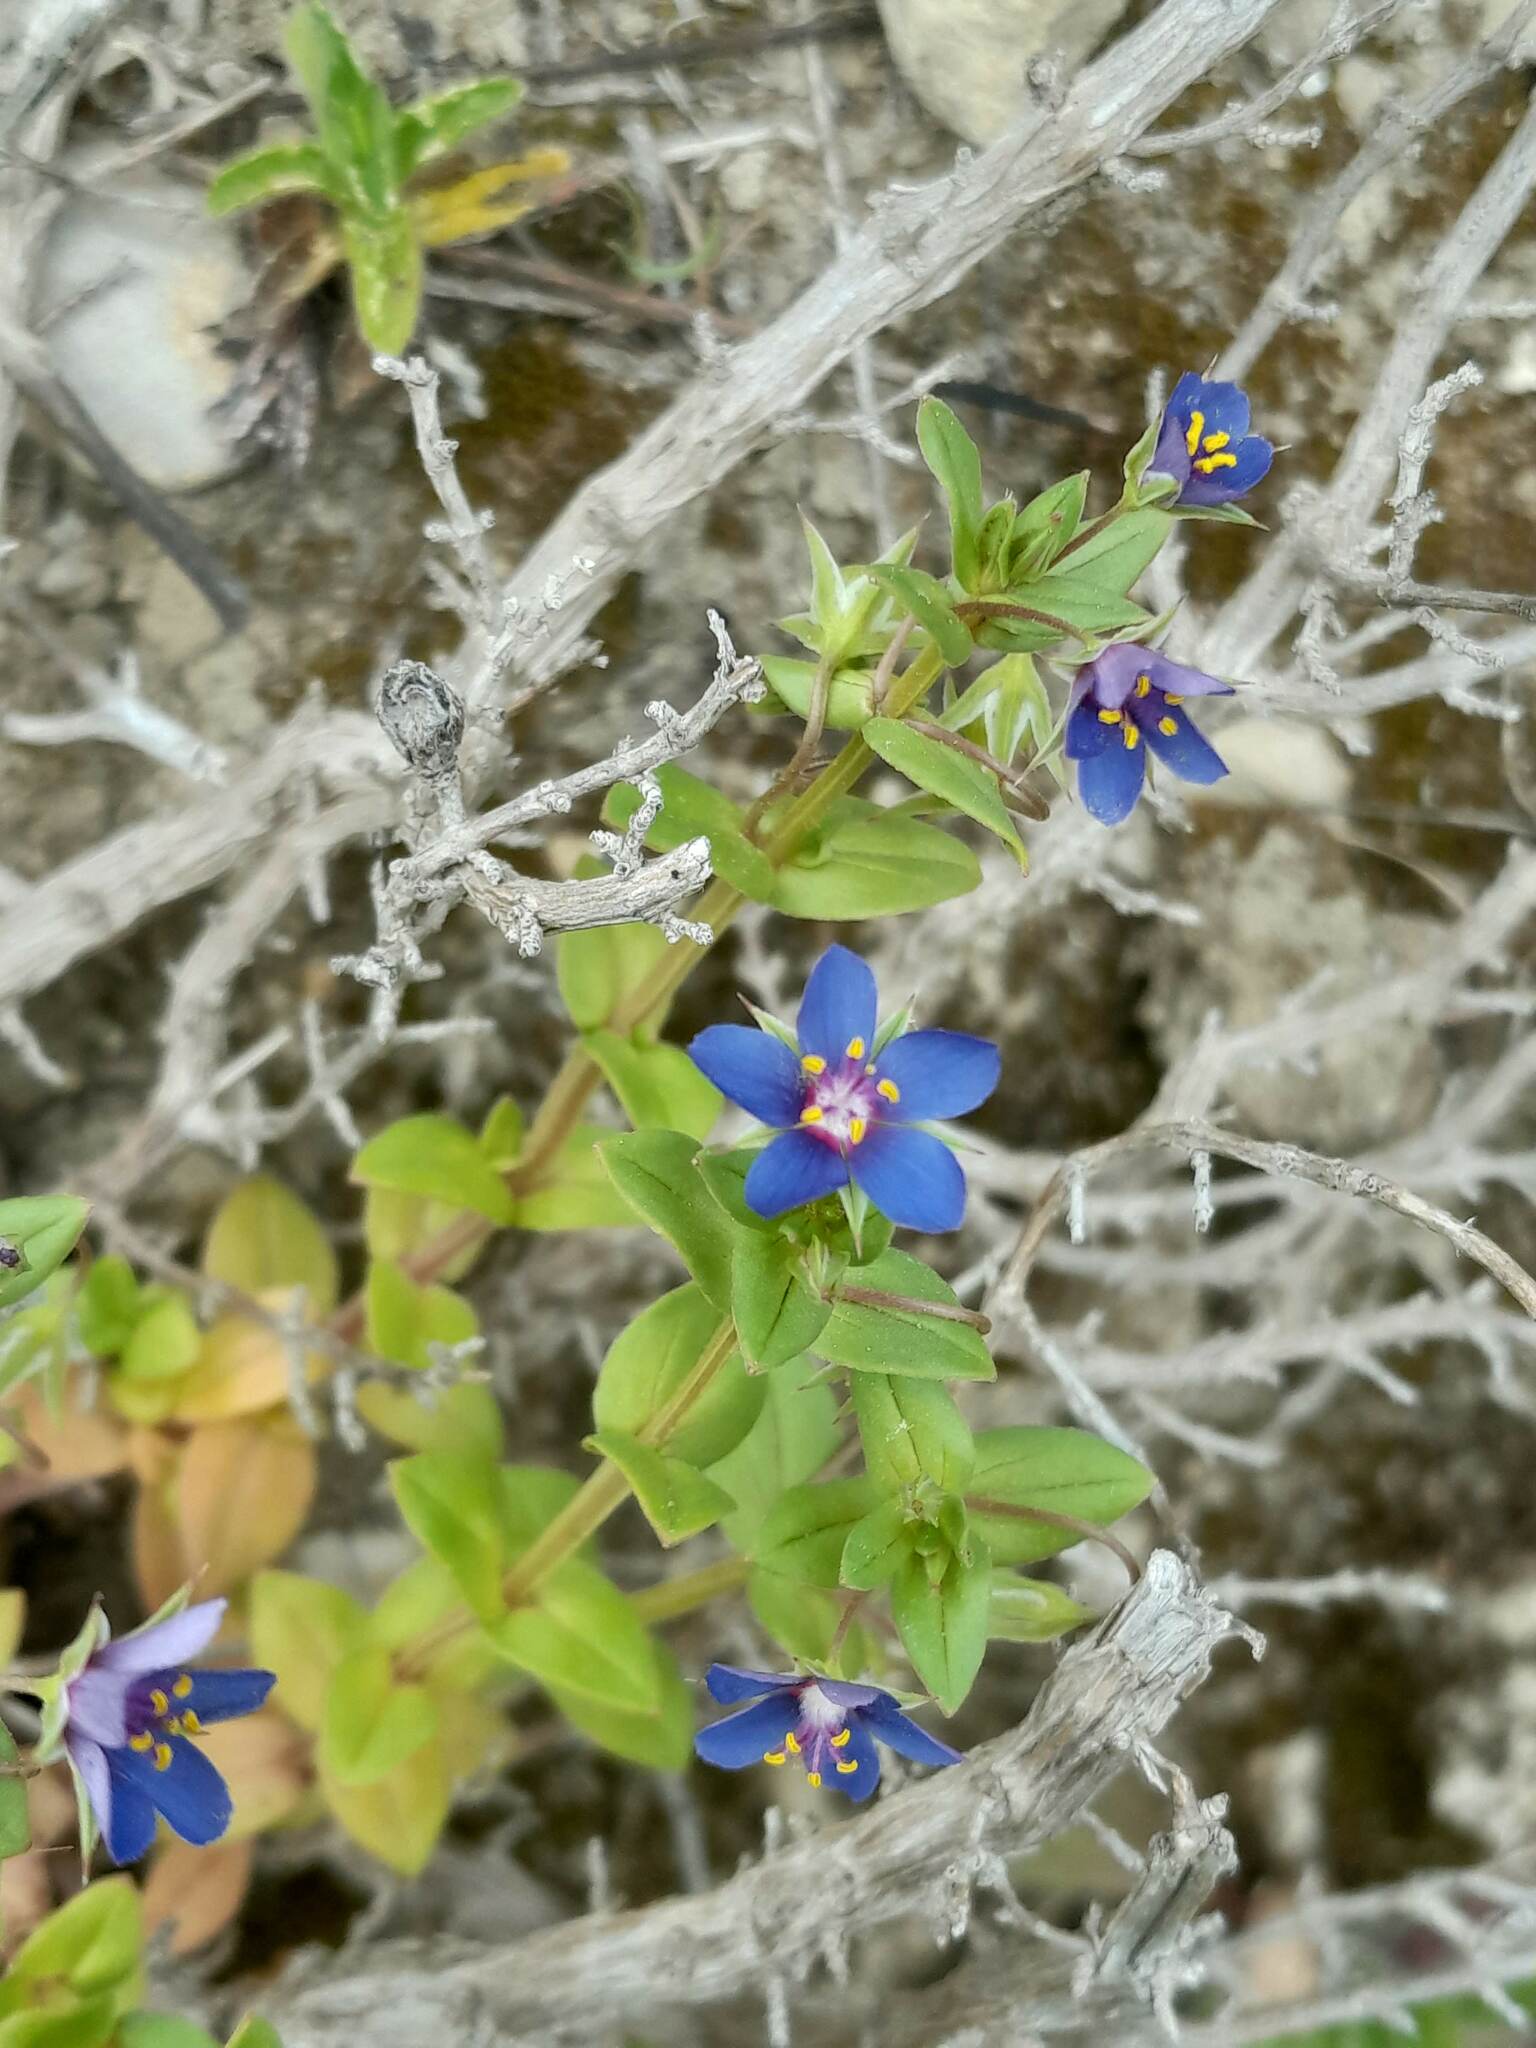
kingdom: Plantae
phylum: Tracheophyta
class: Magnoliopsida
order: Ericales
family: Primulaceae
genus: Lysimachia
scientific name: Lysimachia foemina
